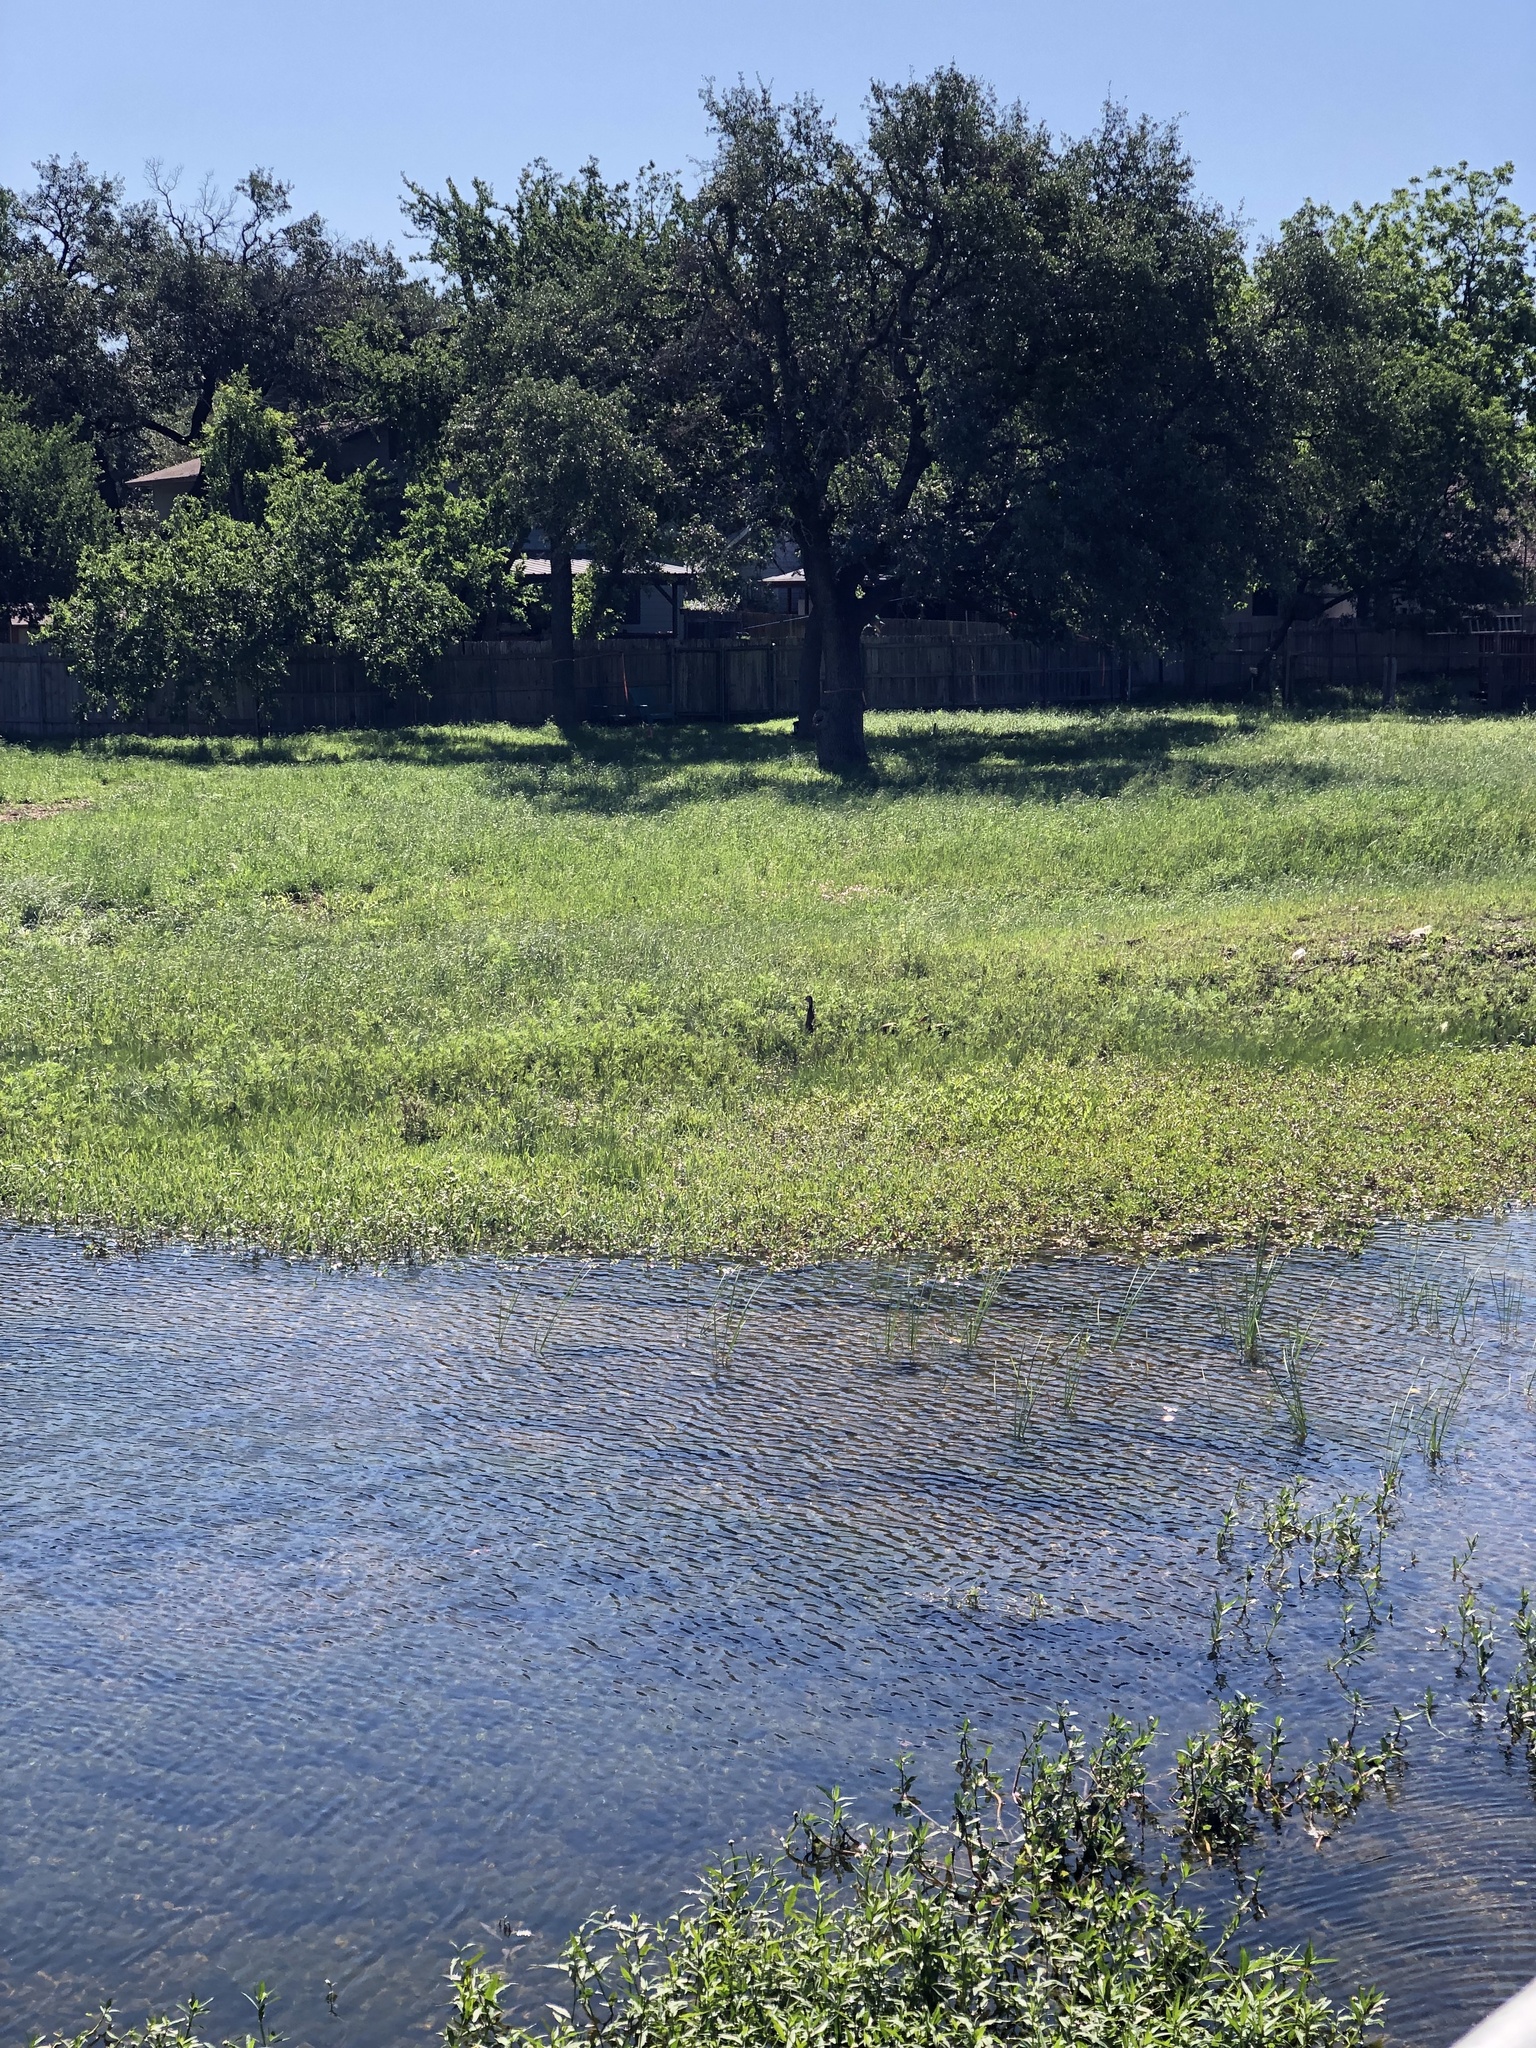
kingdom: Animalia
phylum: Chordata
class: Aves
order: Anseriformes
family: Anatidae
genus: Dendrocygna
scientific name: Dendrocygna autumnalis
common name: Black-bellied whistling duck
